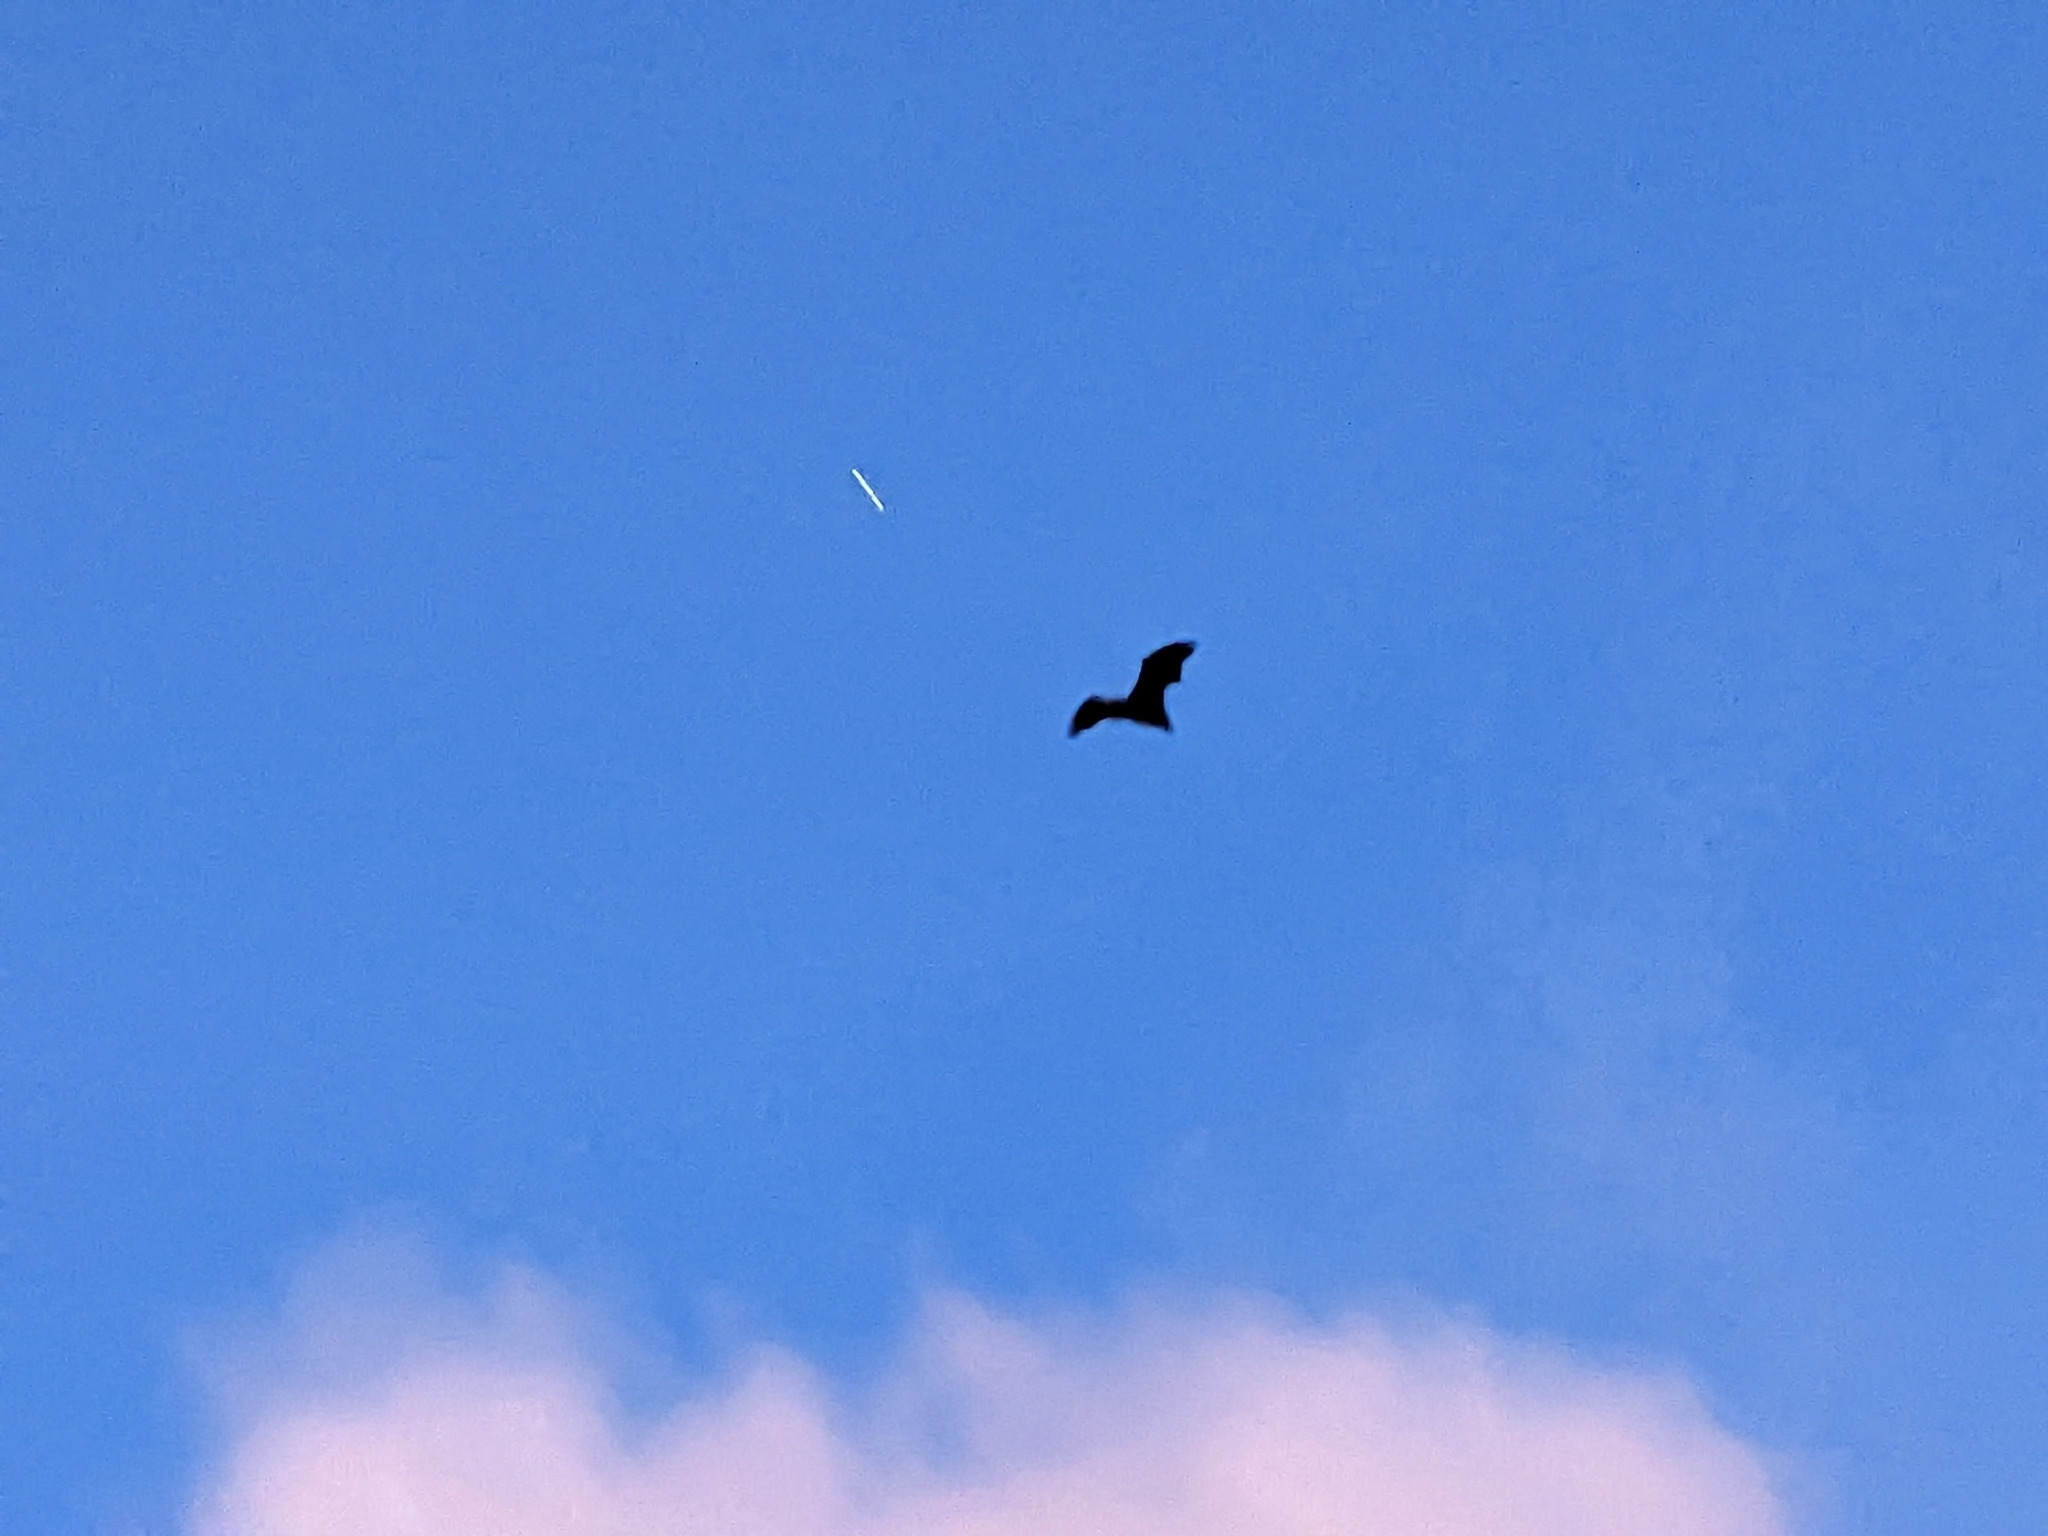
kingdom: Animalia
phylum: Chordata
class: Mammalia
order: Chiroptera
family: Pteropodidae
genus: Pteropus
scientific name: Pteropus poliocephalus
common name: Gray-headed flying fox
